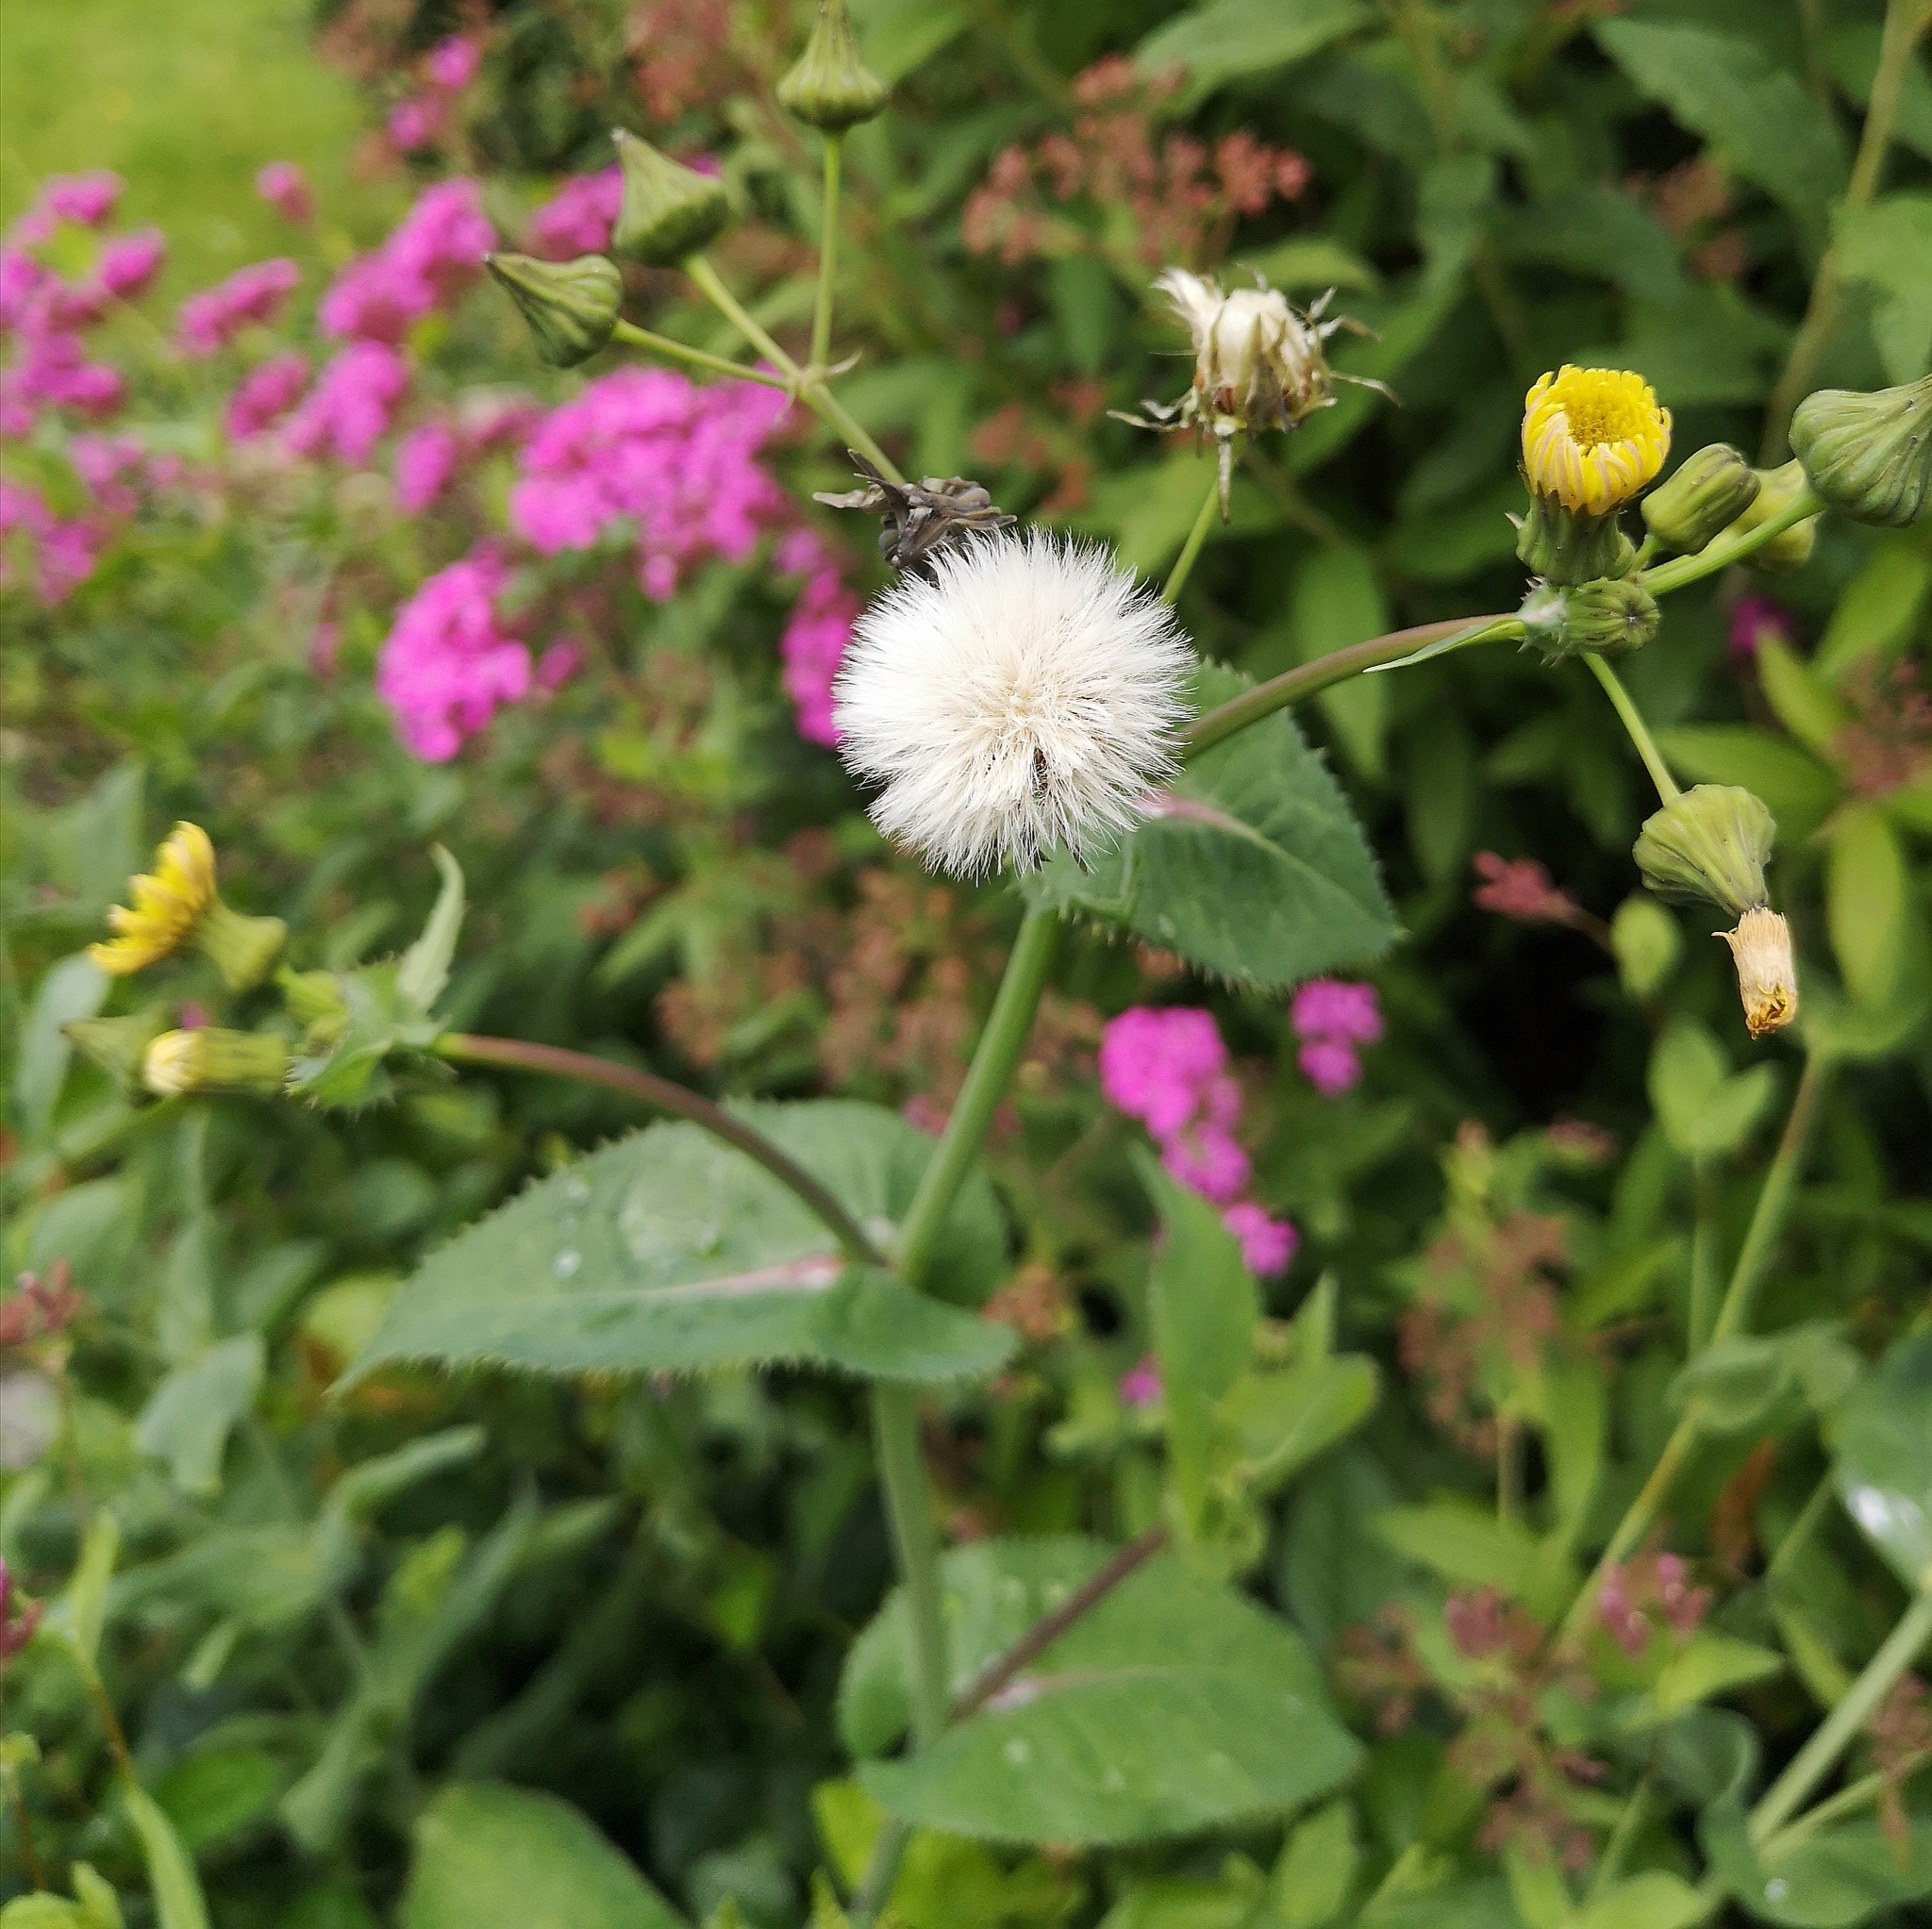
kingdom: Plantae
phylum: Tracheophyta
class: Magnoliopsida
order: Asterales
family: Asteraceae
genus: Sonchus
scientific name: Sonchus oleraceus
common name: Common sowthistle
